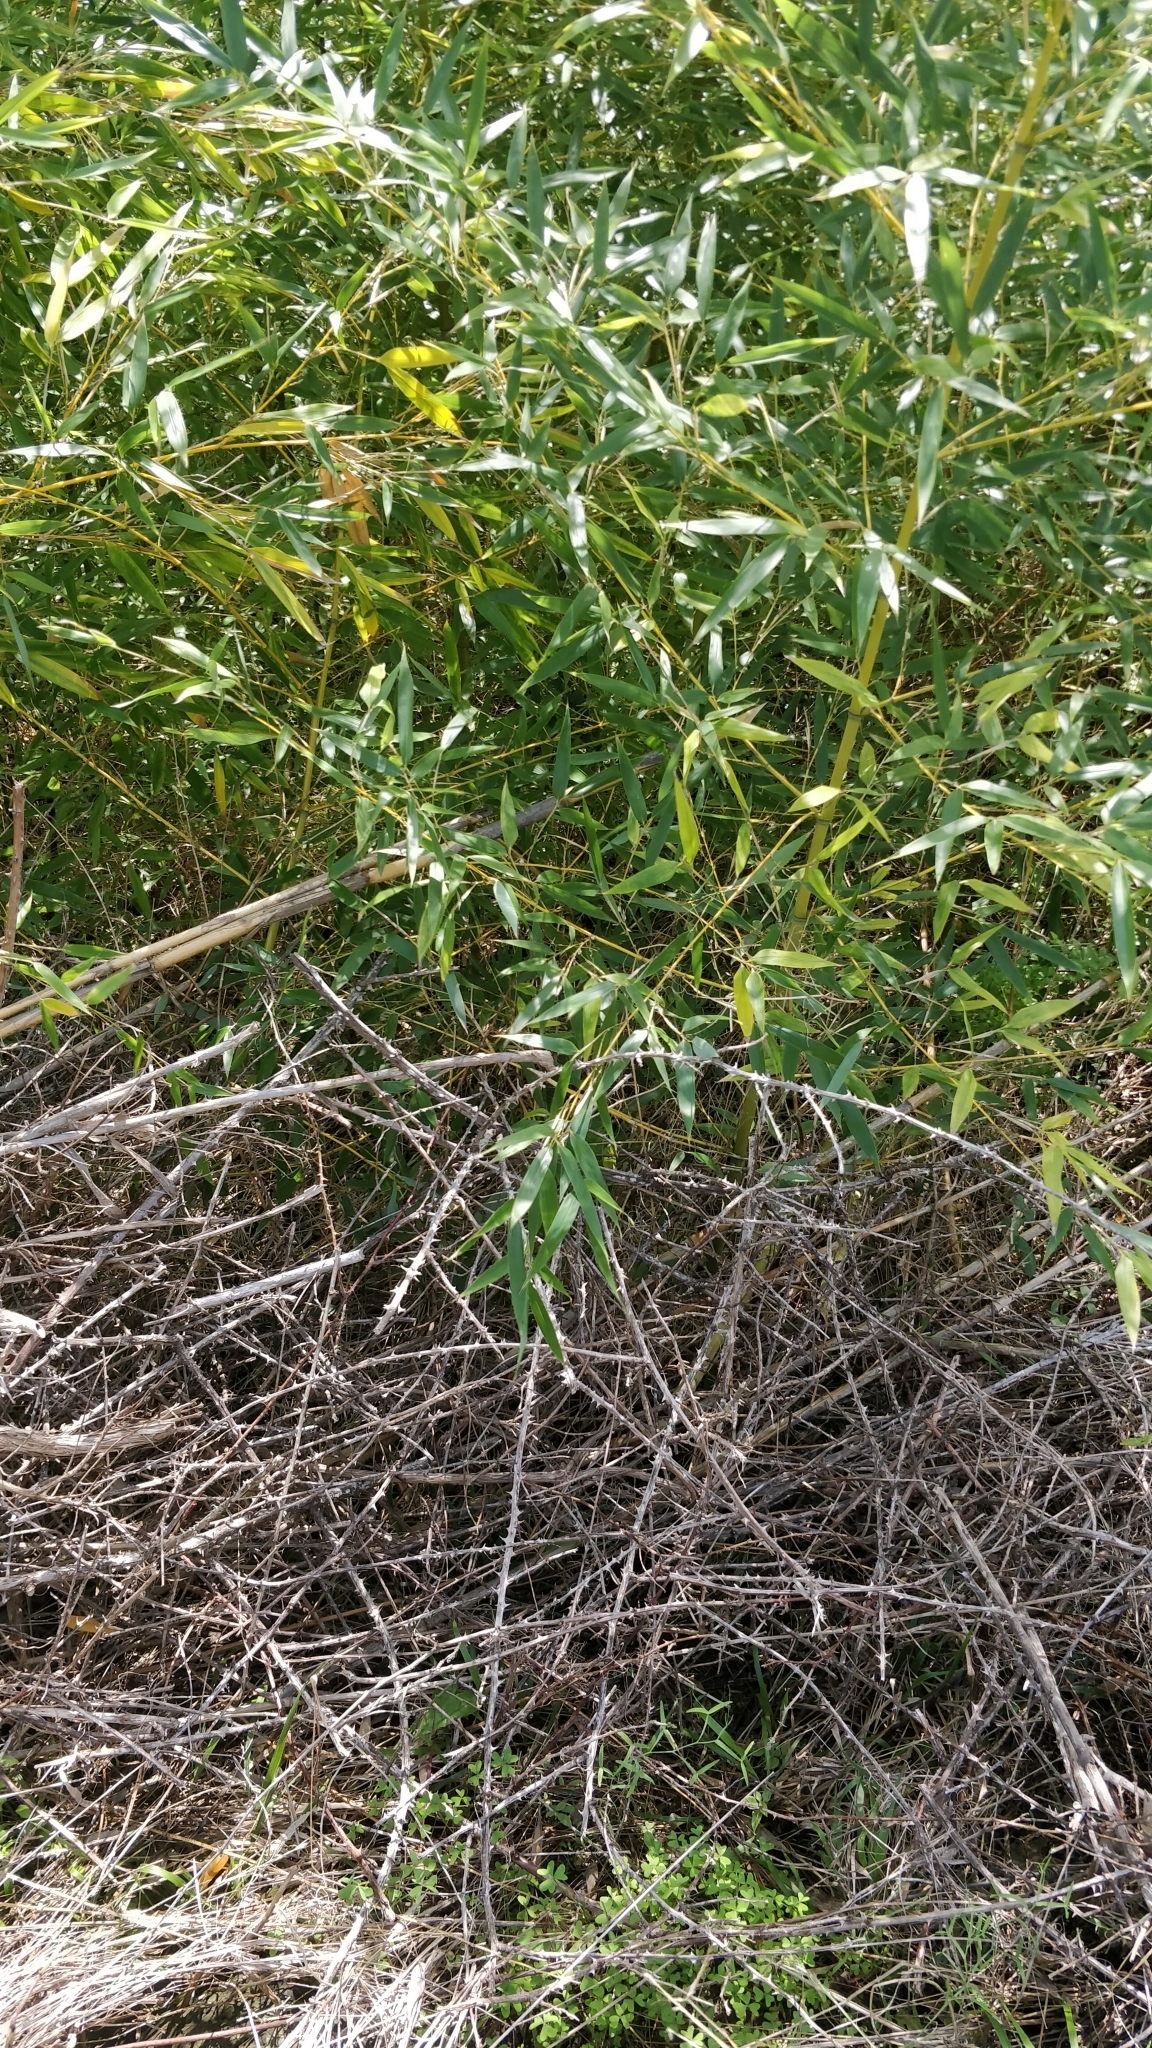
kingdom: Plantae
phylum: Tracheophyta
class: Liliopsida
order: Poales
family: Poaceae
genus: Pseudosasa
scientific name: Pseudosasa japonica
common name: Arrow bamboo
